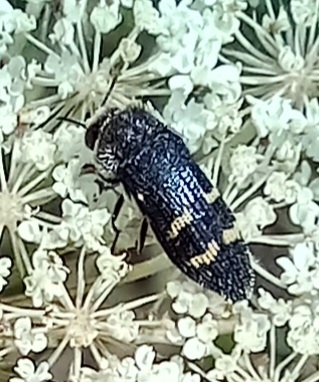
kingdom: Animalia
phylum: Arthropoda
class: Insecta
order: Coleoptera
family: Buprestidae
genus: Acmaeoderella
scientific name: Acmaeoderella flavofasciata
